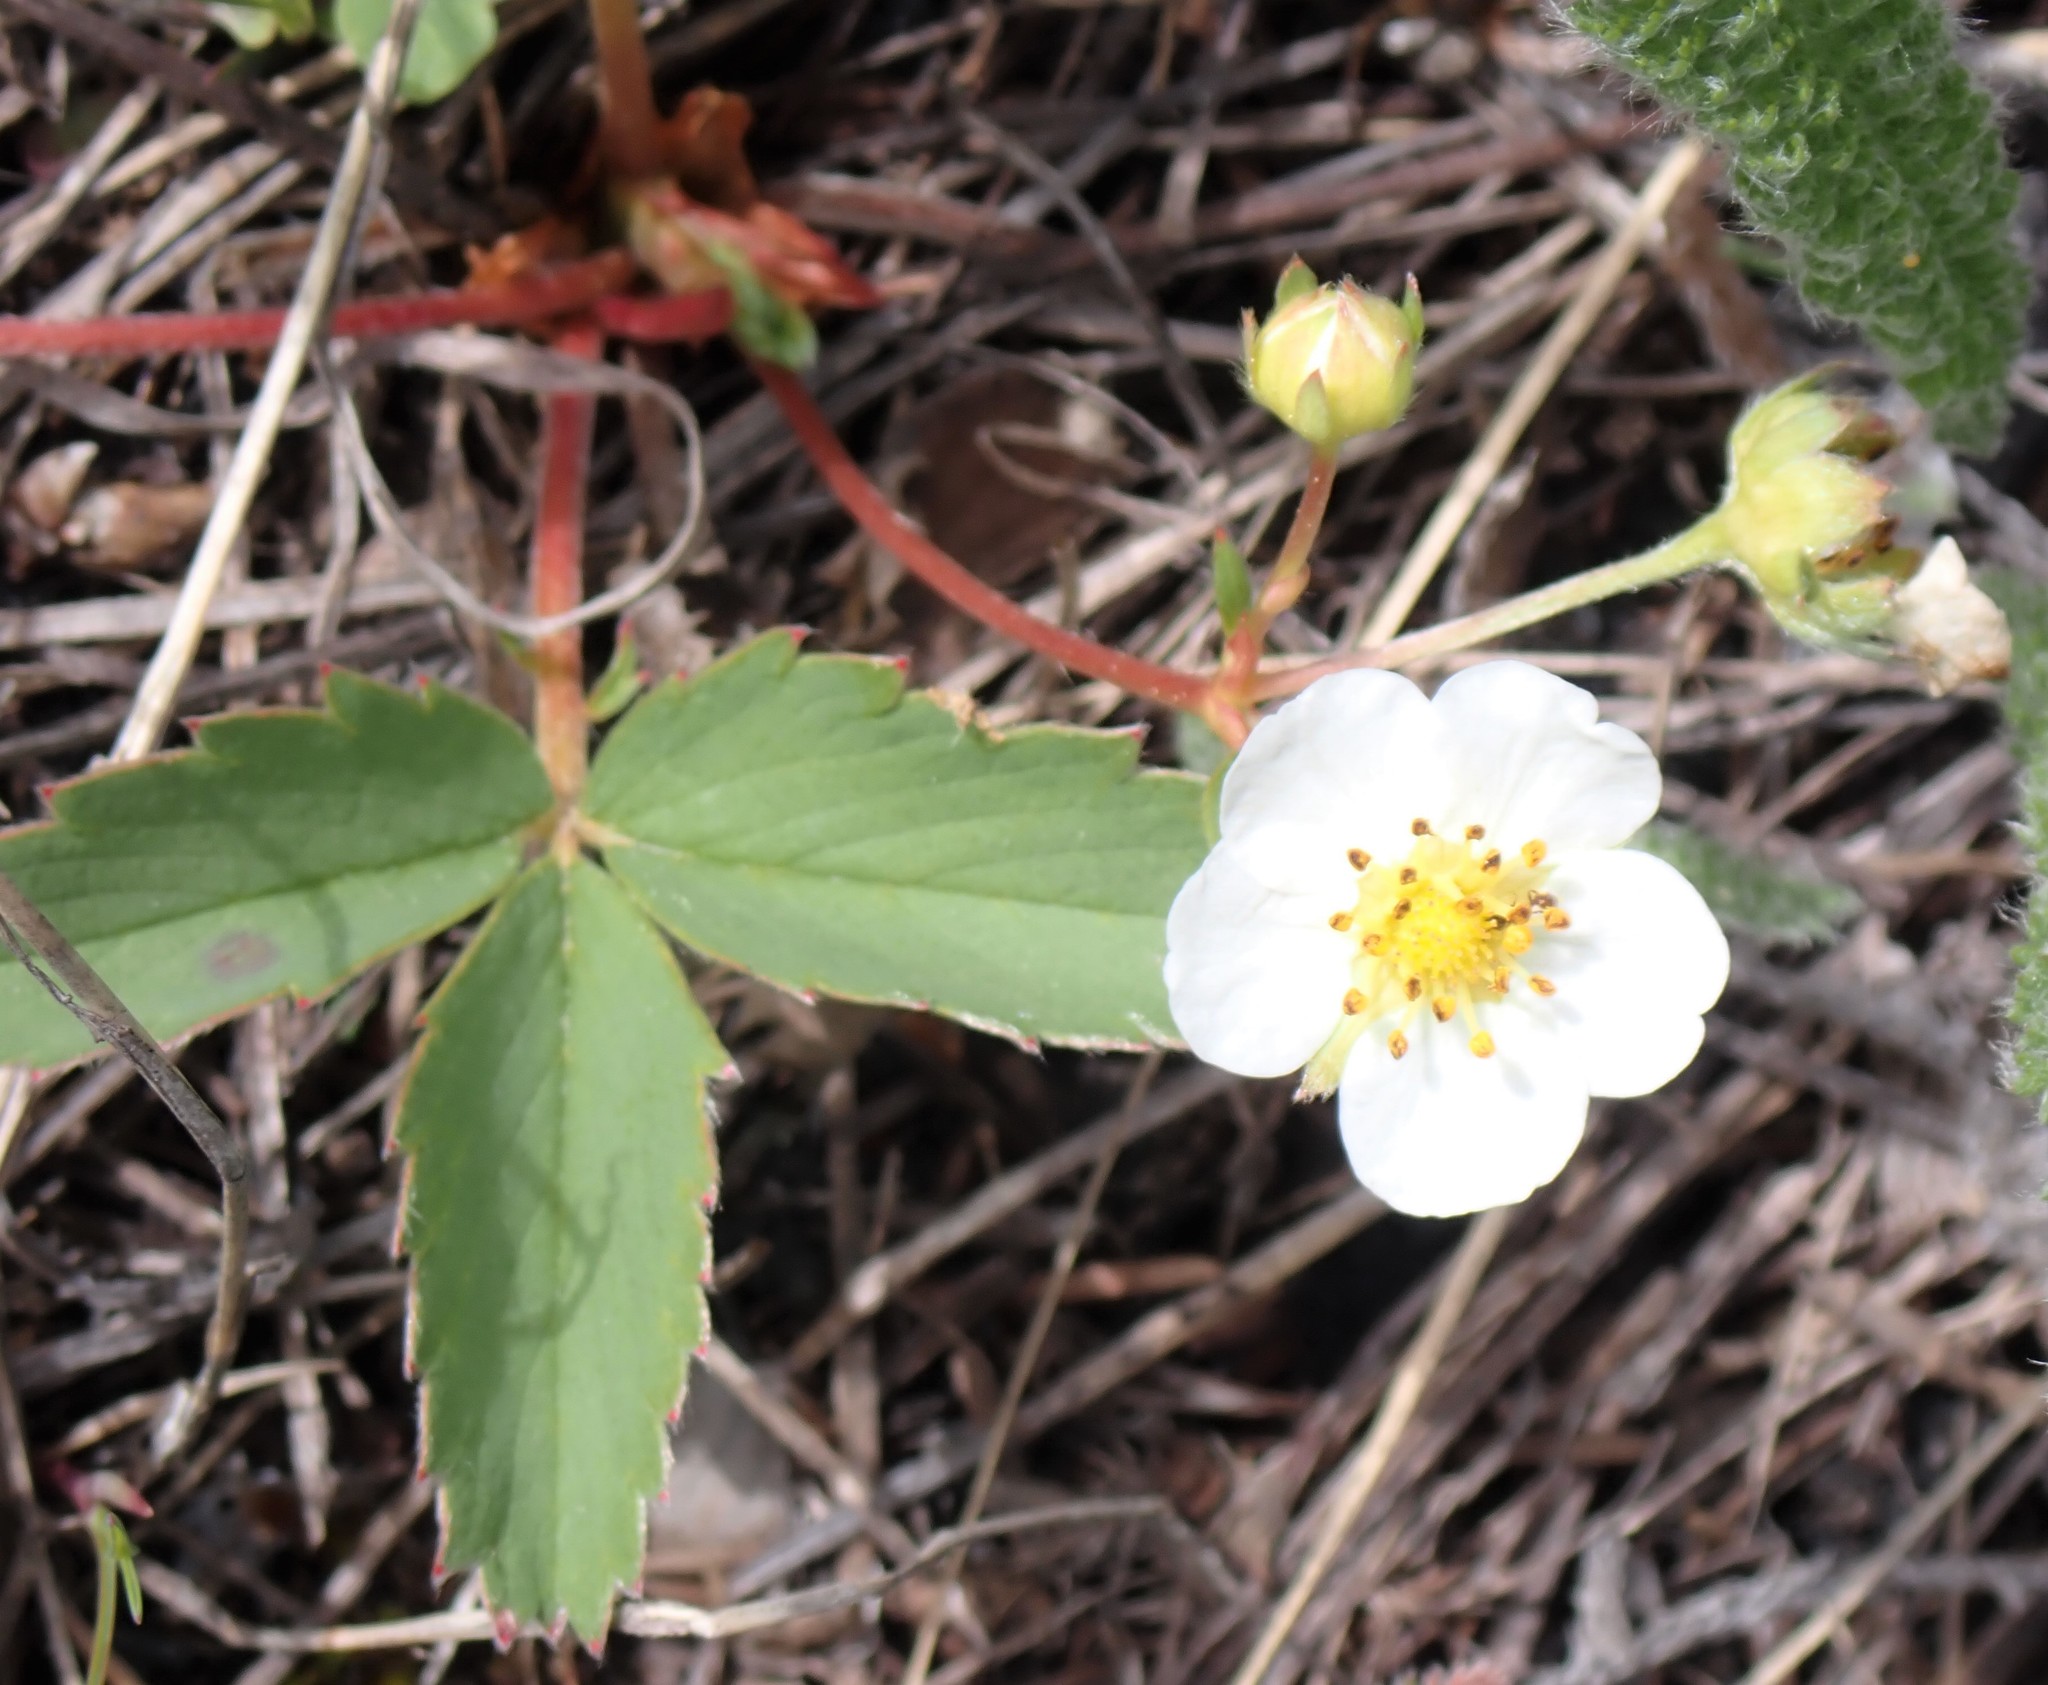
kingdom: Plantae
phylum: Tracheophyta
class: Magnoliopsida
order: Rosales
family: Rosaceae
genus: Fragaria
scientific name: Fragaria virginiana
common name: Thickleaved wild strawberry
